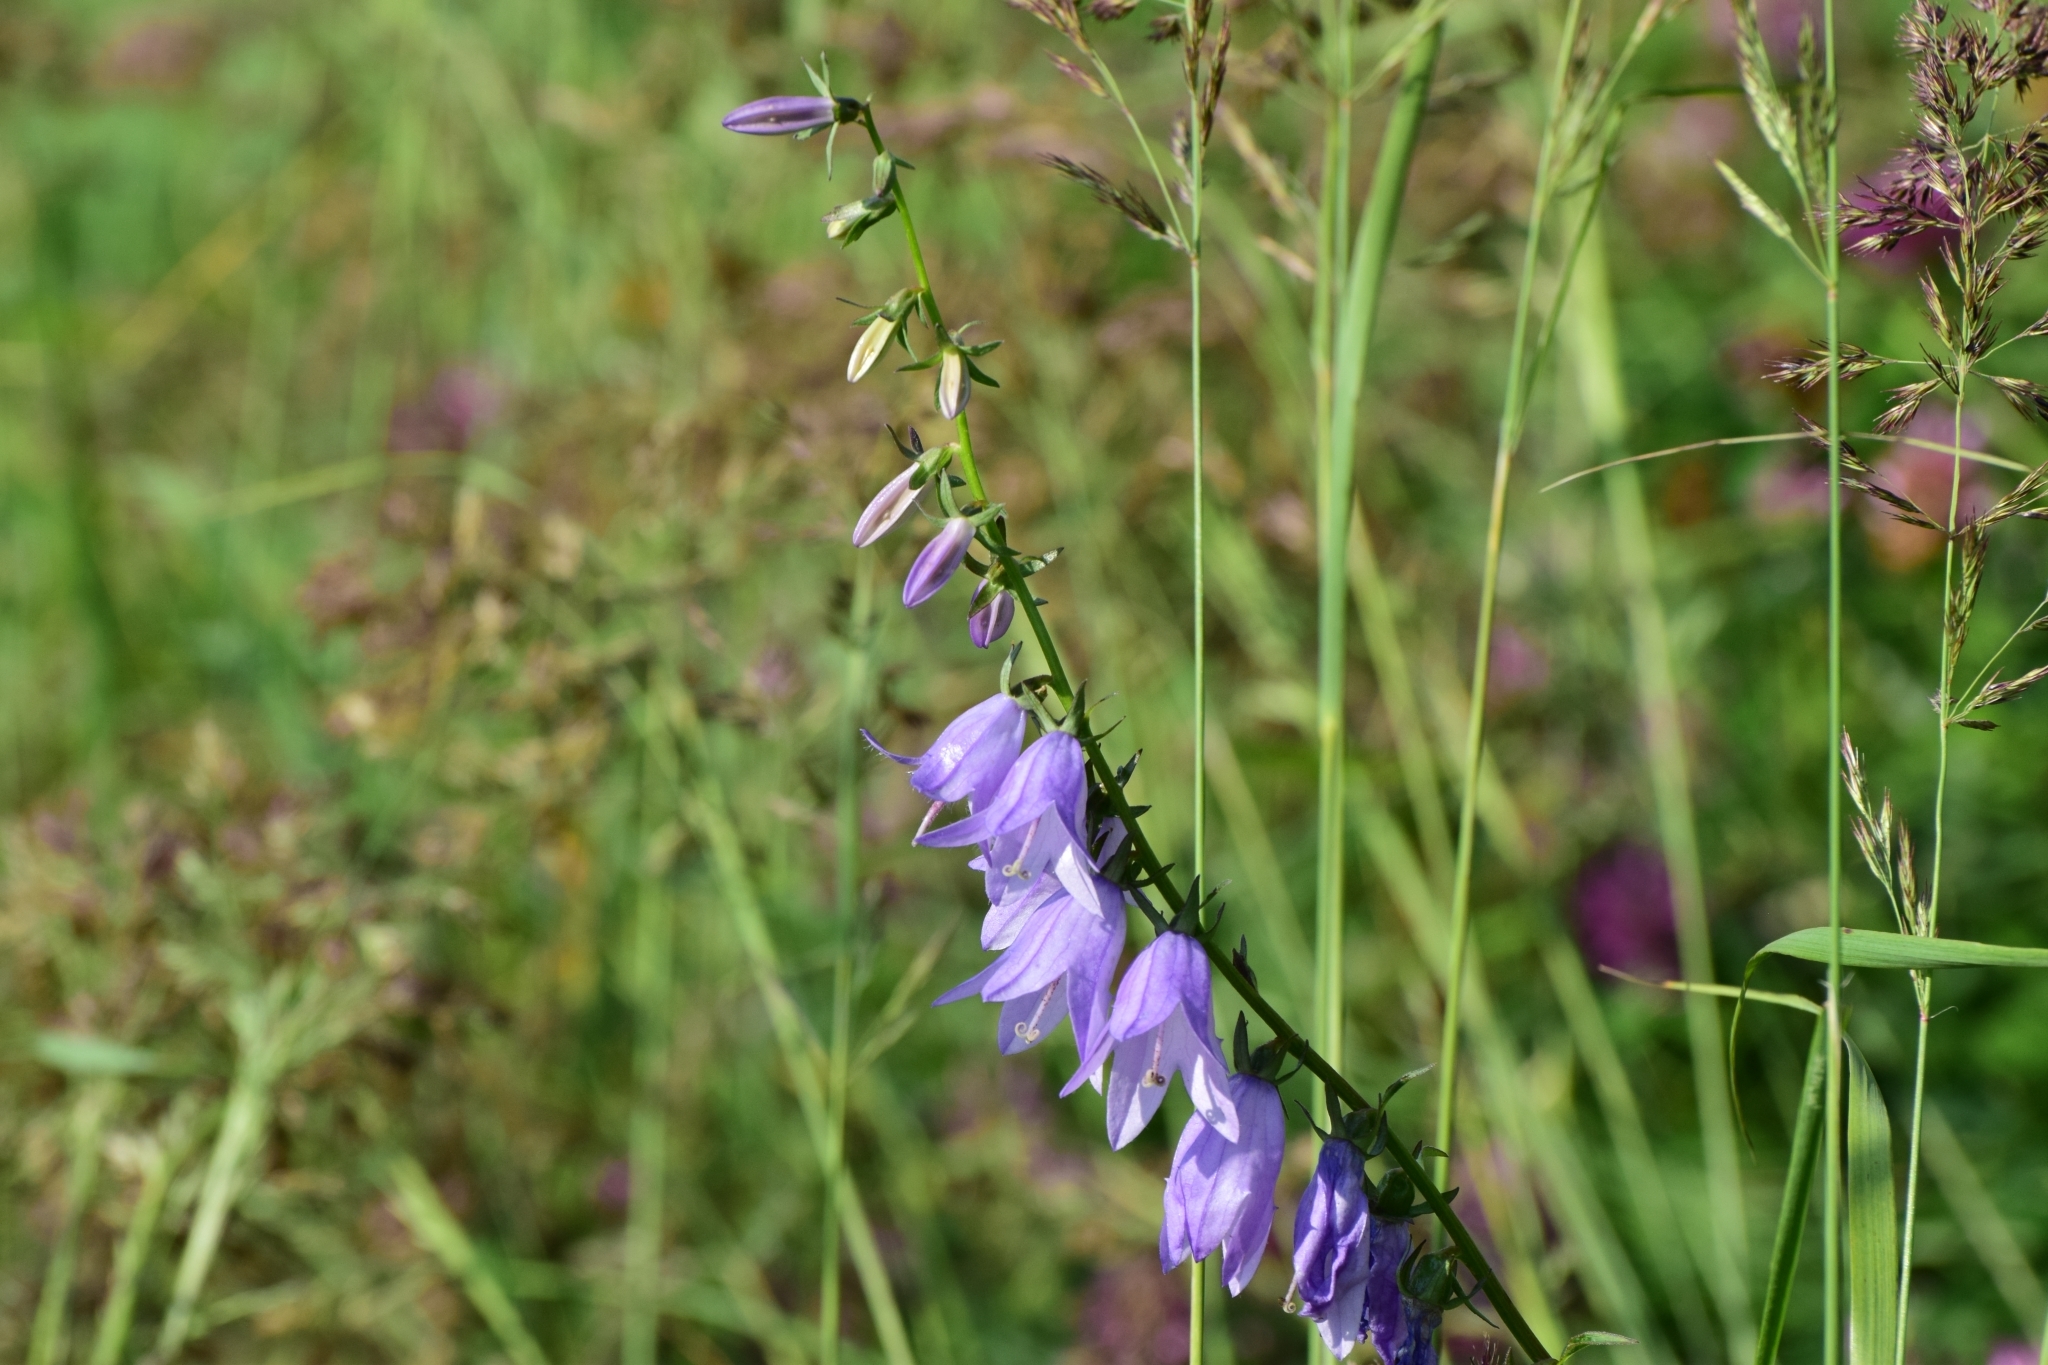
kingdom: Plantae
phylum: Tracheophyta
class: Magnoliopsida
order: Asterales
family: Campanulaceae
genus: Campanula
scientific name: Campanula rapunculoides
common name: Creeping bellflower
